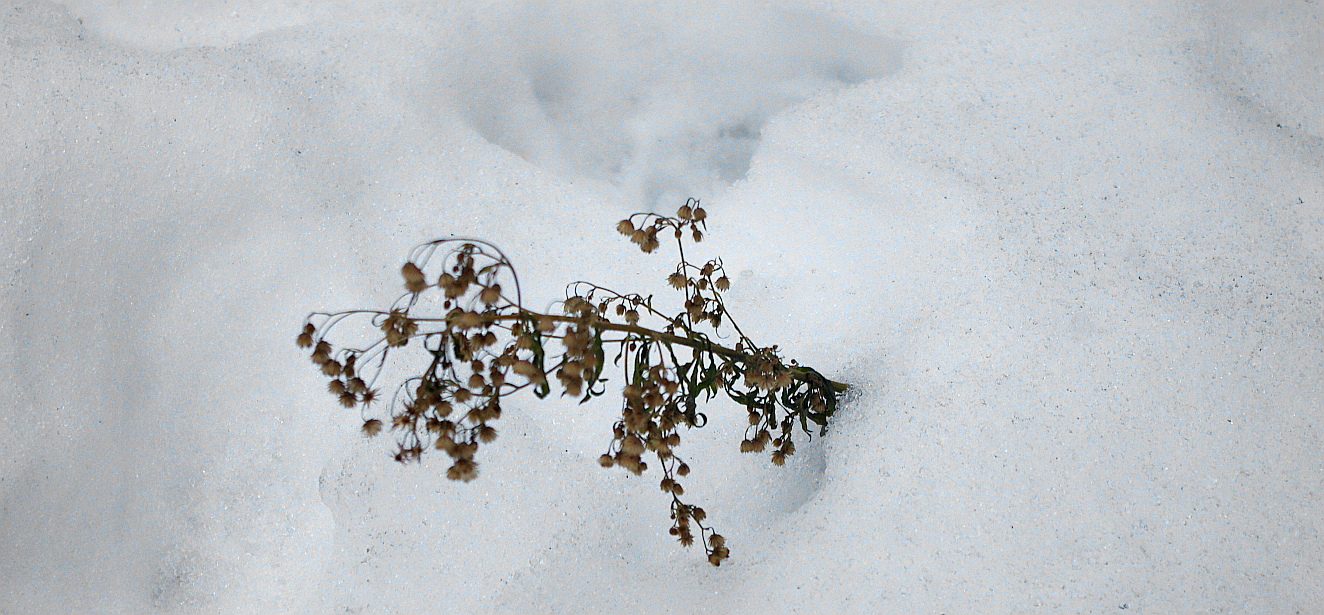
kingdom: Plantae
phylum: Tracheophyta
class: Magnoliopsida
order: Asterales
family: Asteraceae
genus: Erigeron
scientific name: Erigeron canadensis
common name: Canadian fleabane
